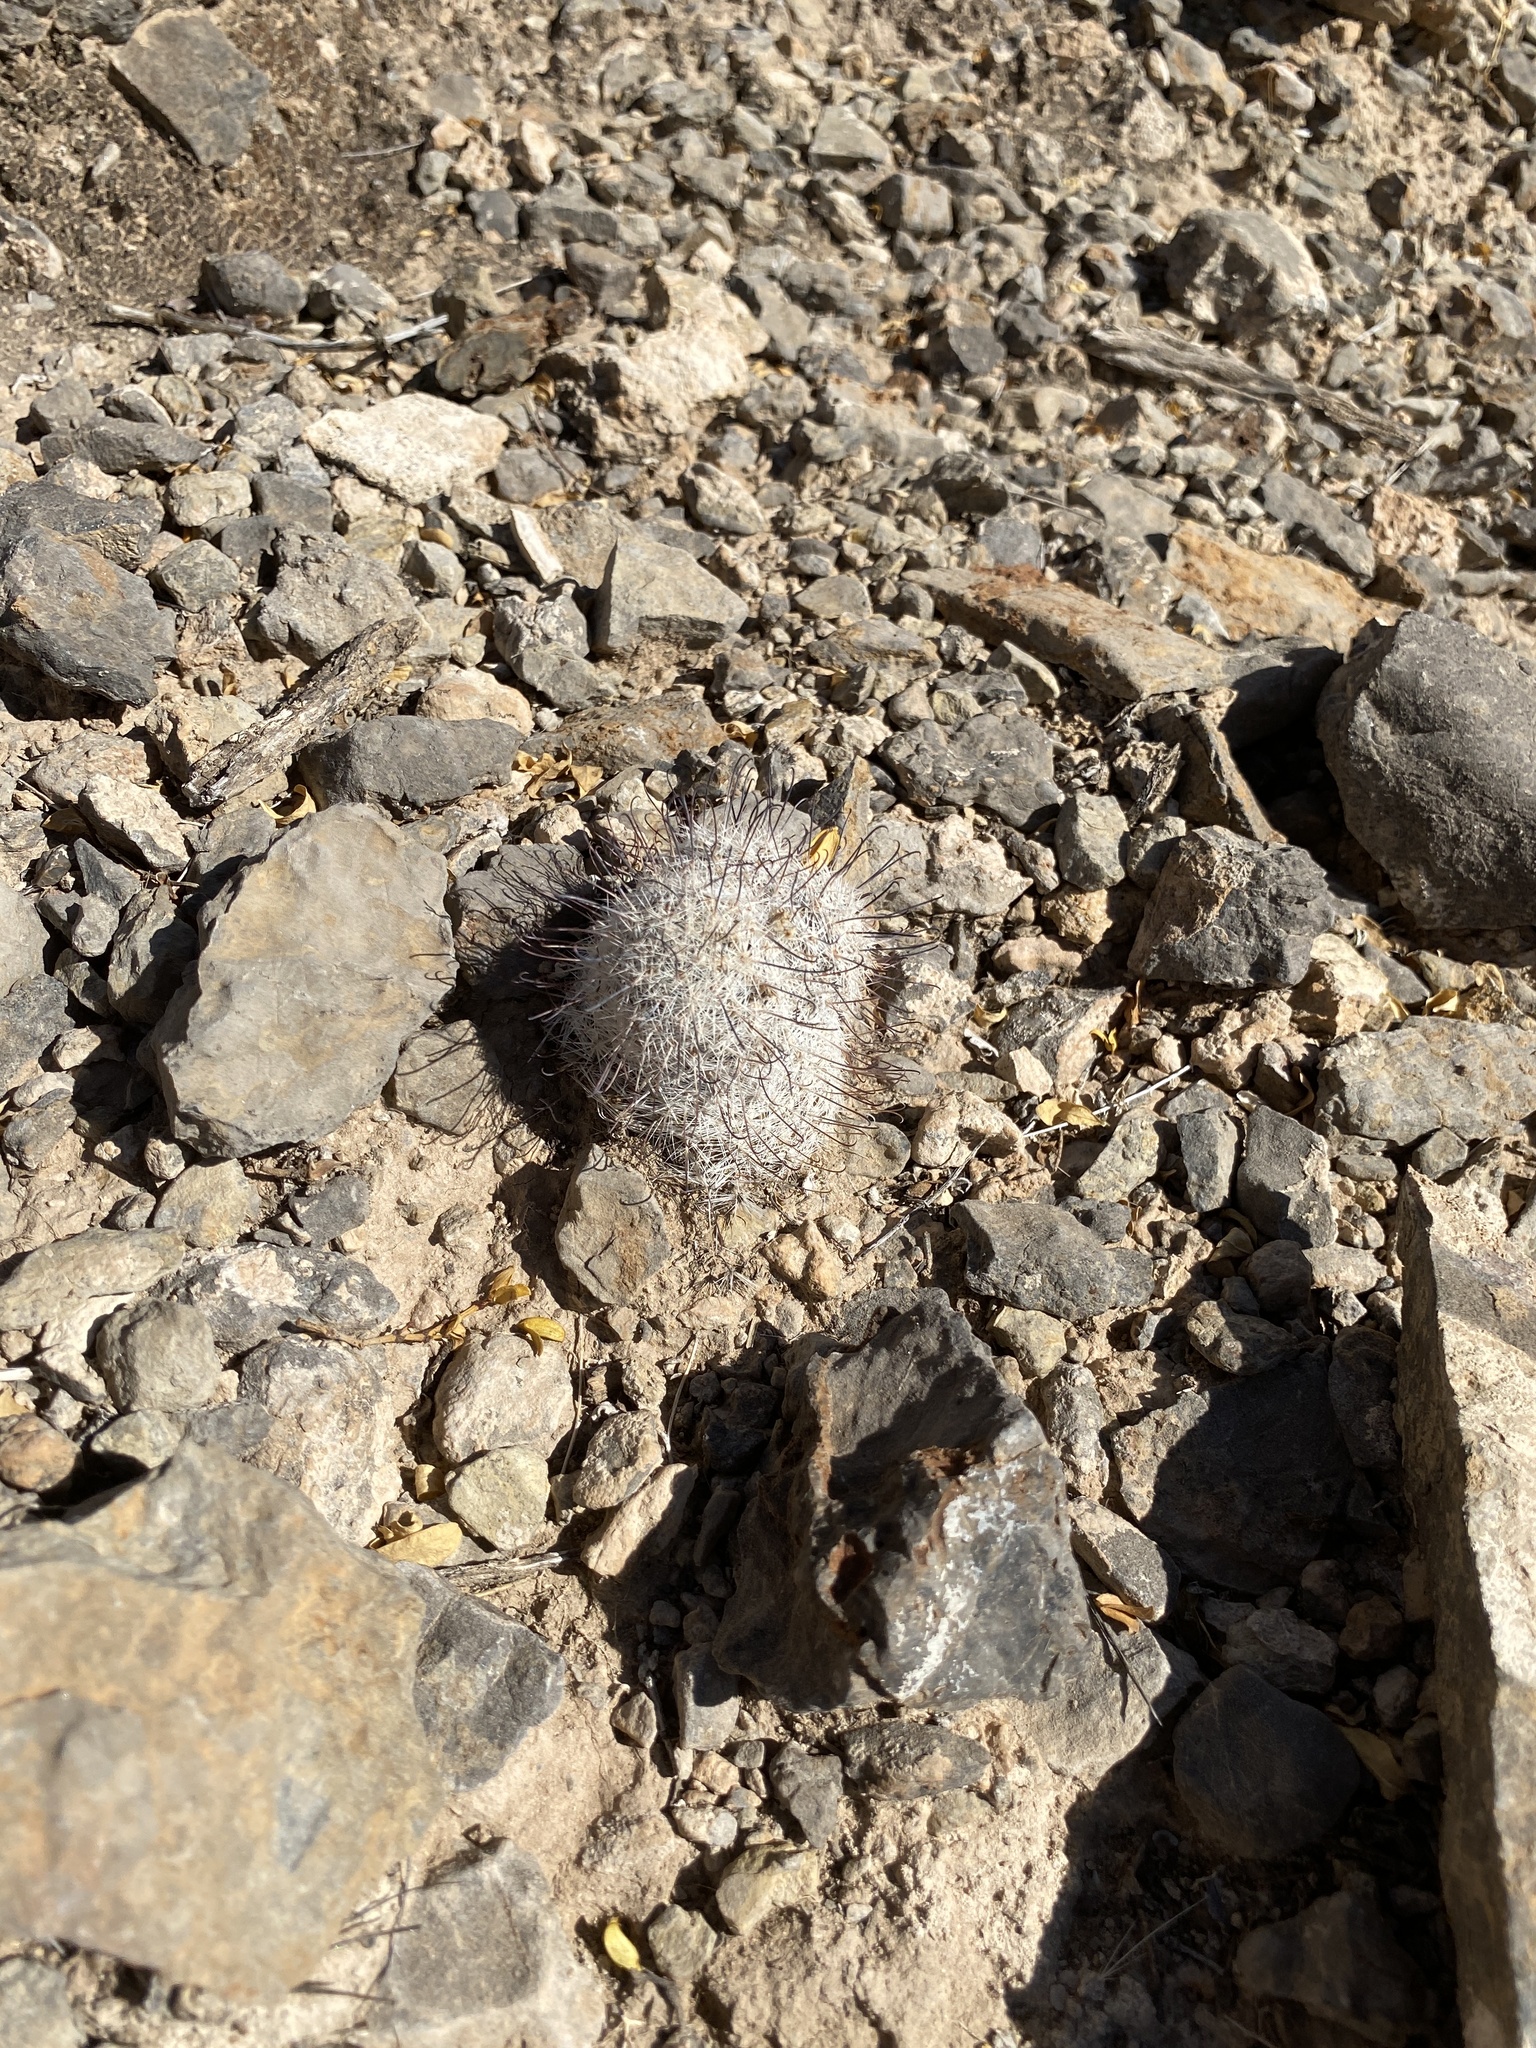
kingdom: Plantae
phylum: Tracheophyta
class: Magnoliopsida
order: Caryophyllales
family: Cactaceae
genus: Cochemiea
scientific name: Cochemiea grahamii
